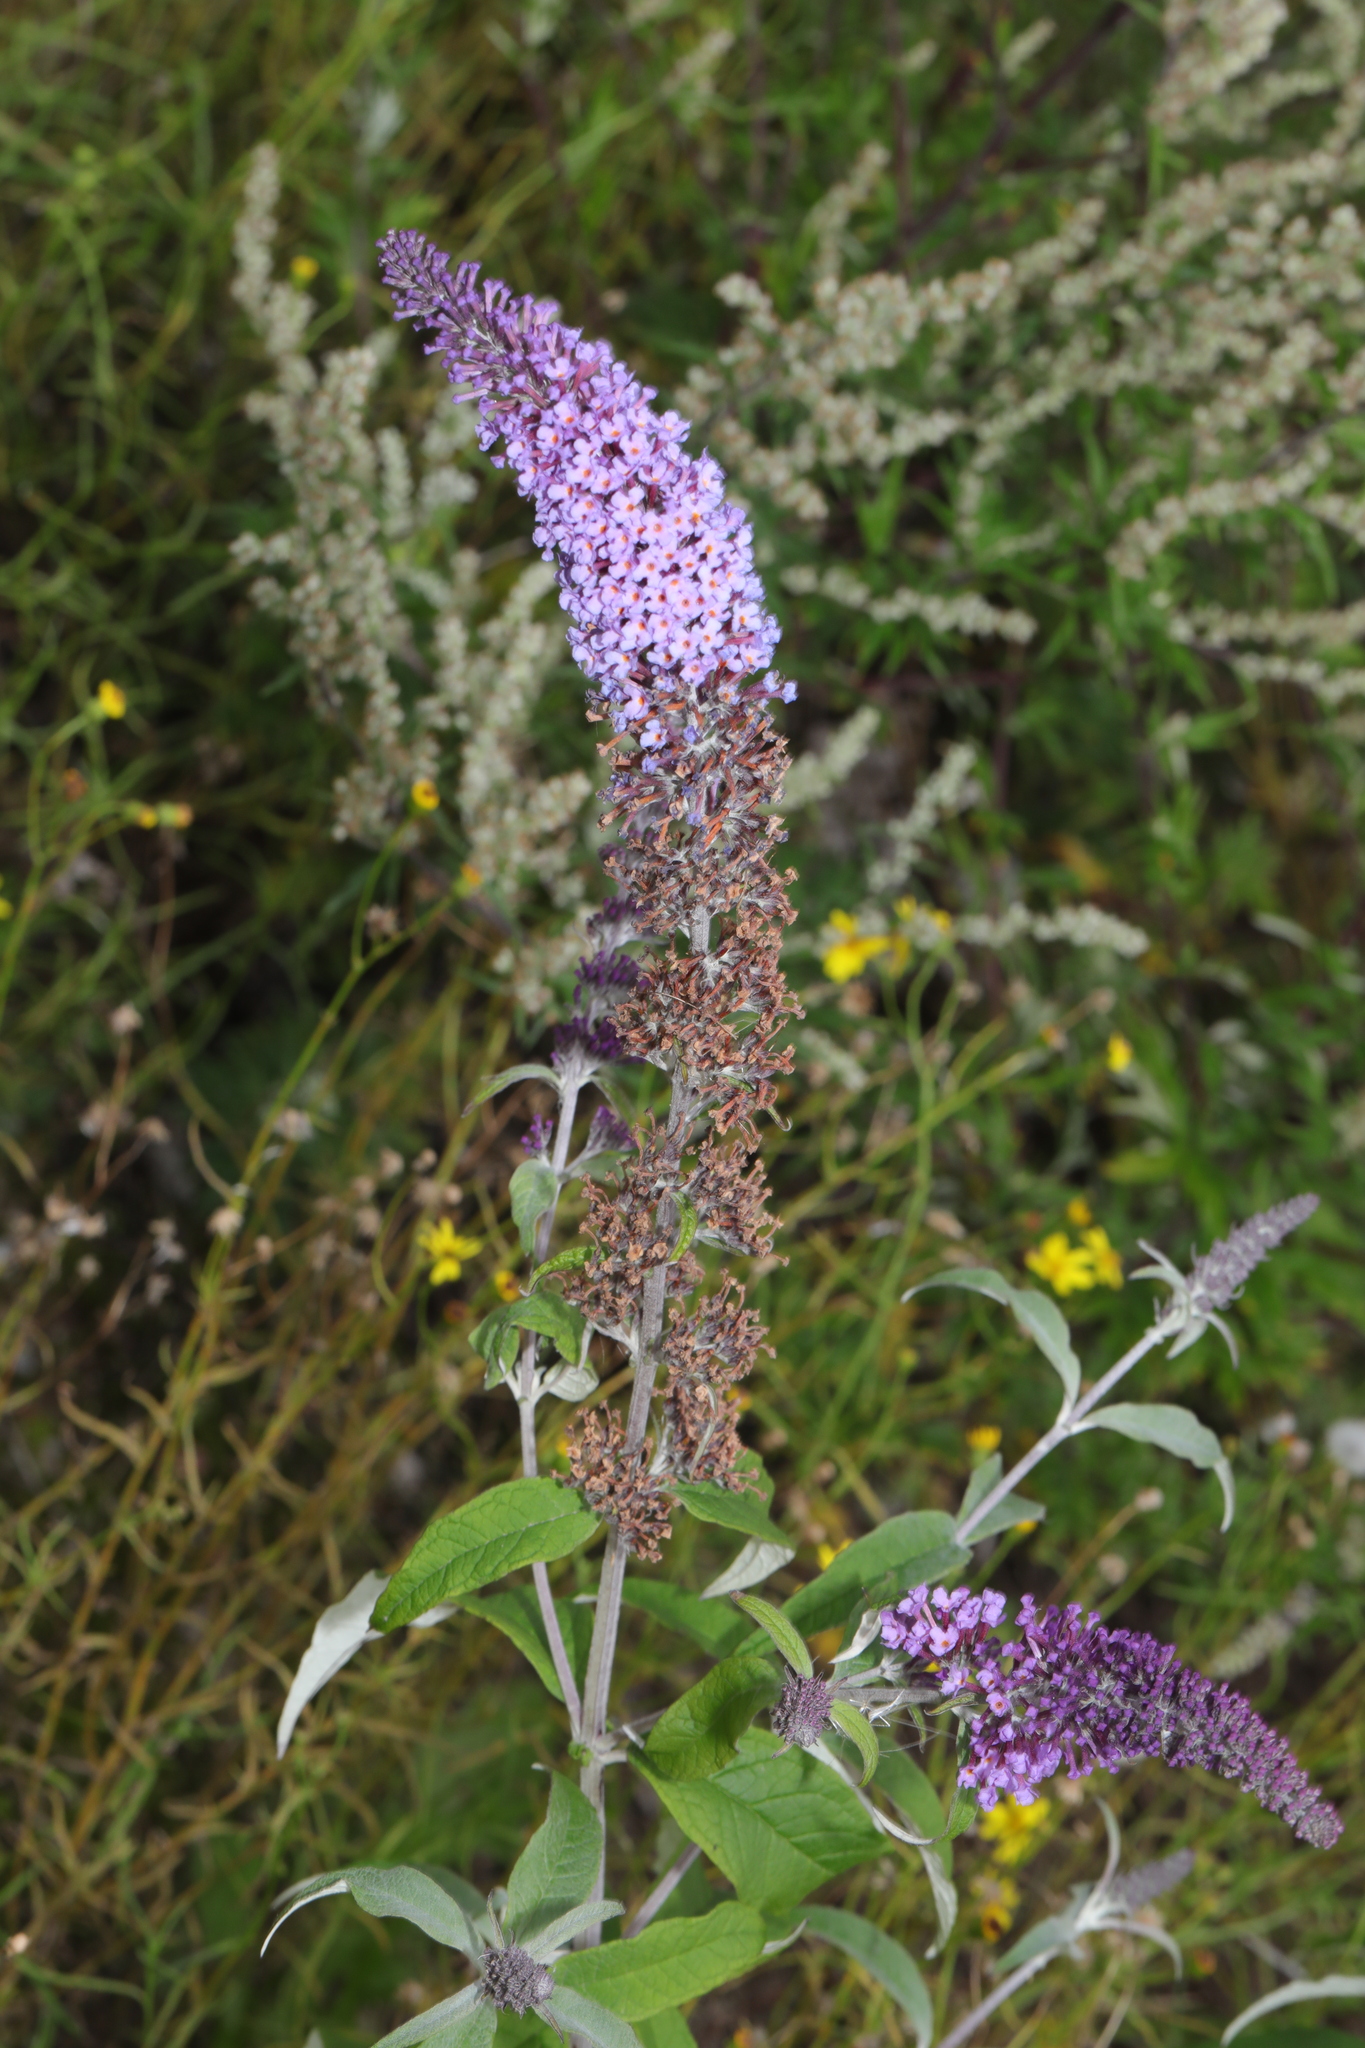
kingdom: Plantae
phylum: Tracheophyta
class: Magnoliopsida
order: Lamiales
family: Scrophulariaceae
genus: Buddleja
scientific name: Buddleja davidii
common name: Butterfly-bush
